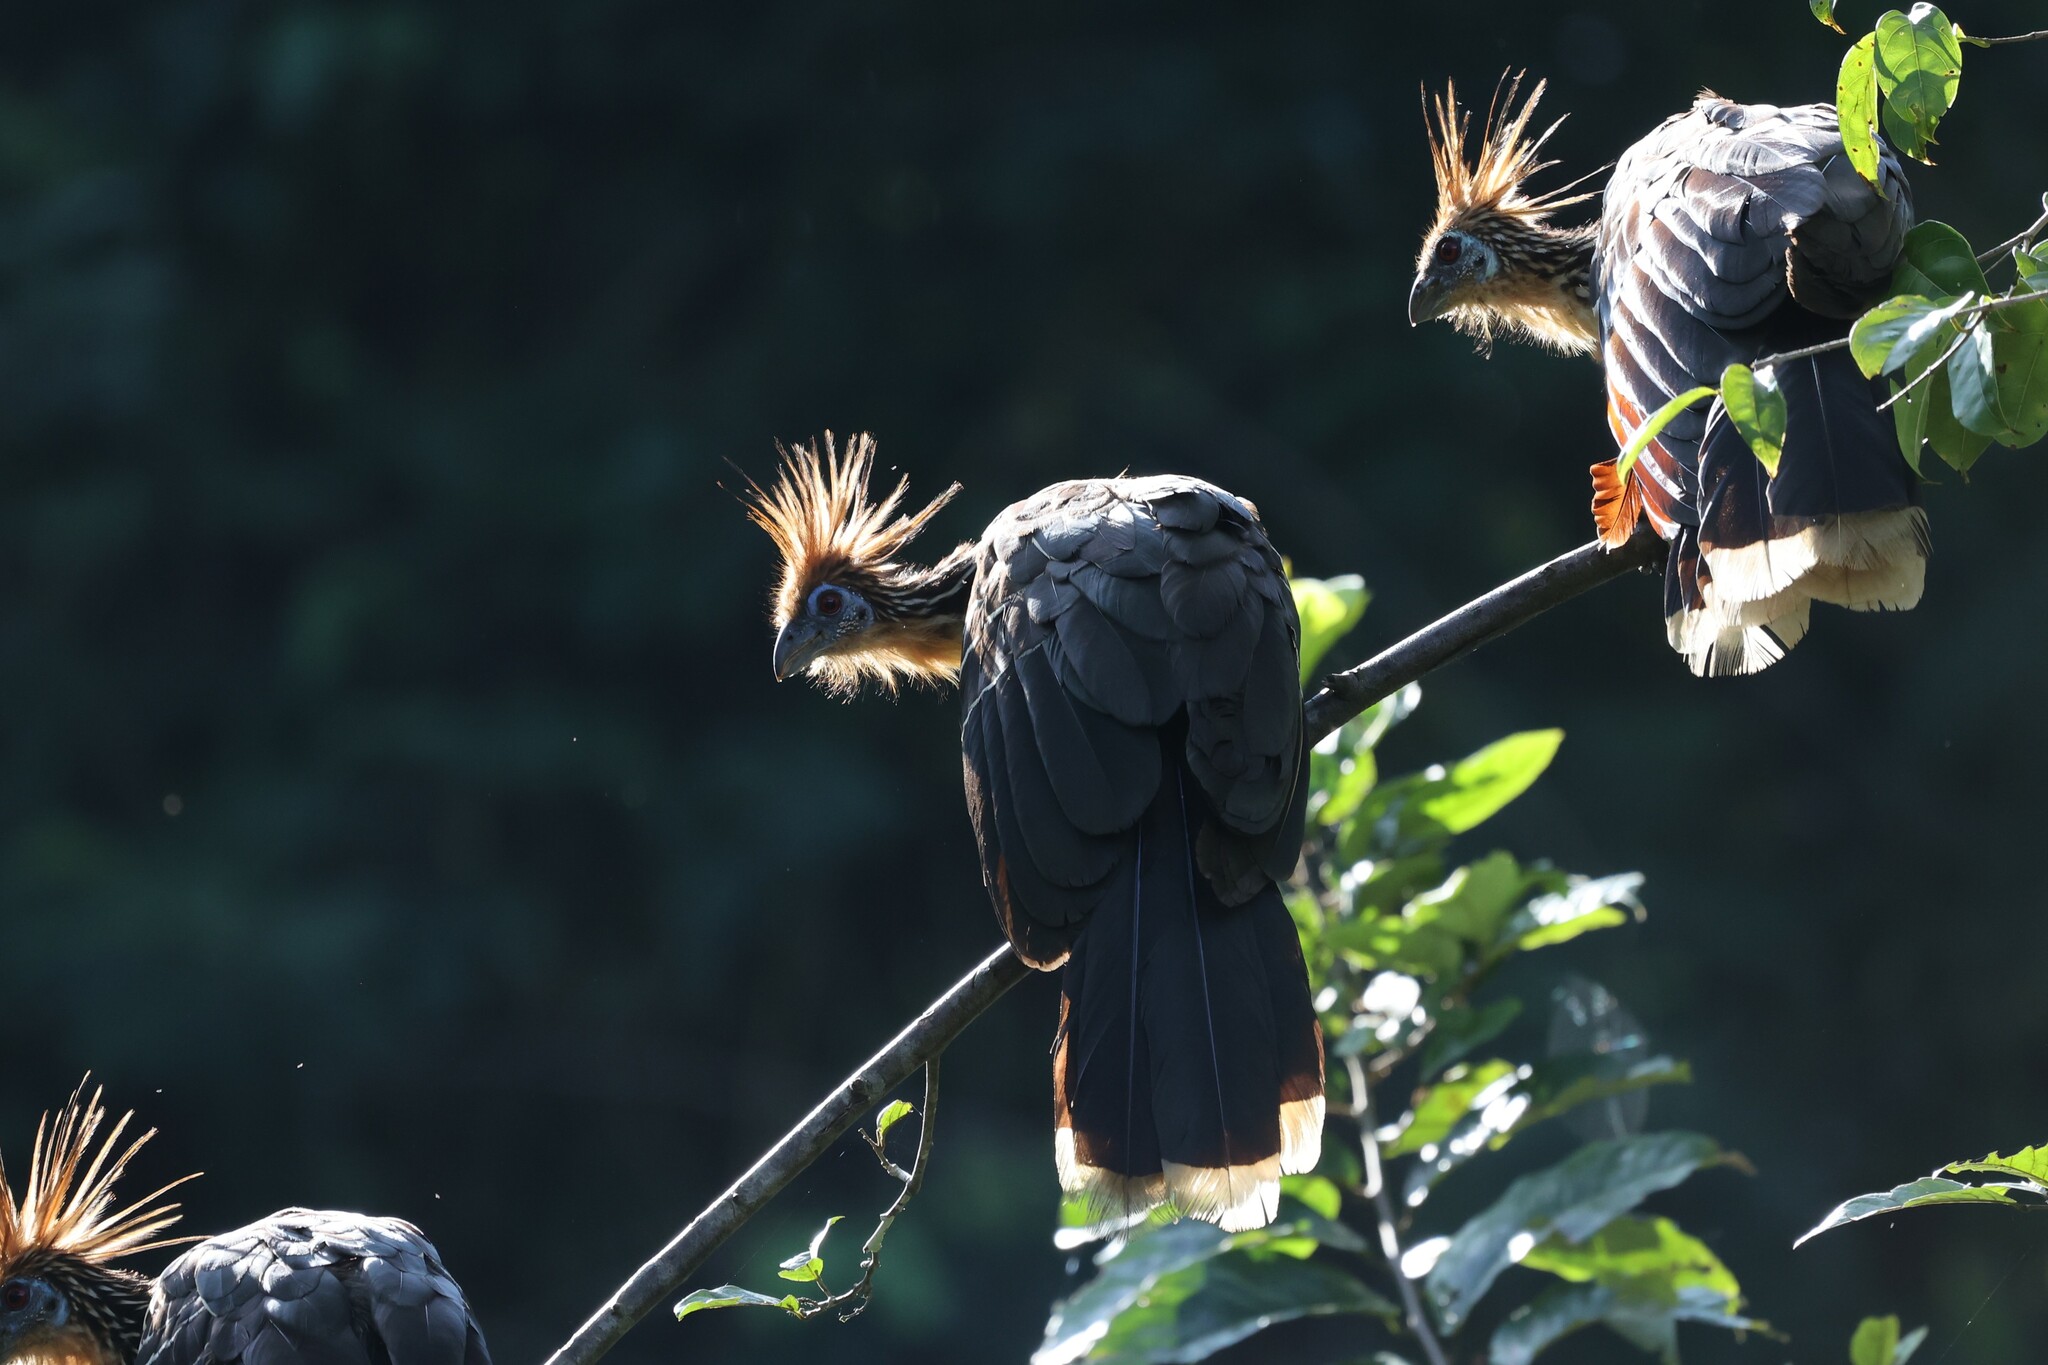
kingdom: Animalia
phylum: Chordata
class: Aves
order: Opisthocomiformes
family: Opisthocomidae
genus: Opisthocomus
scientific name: Opisthocomus hoazin
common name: Hoatzin
